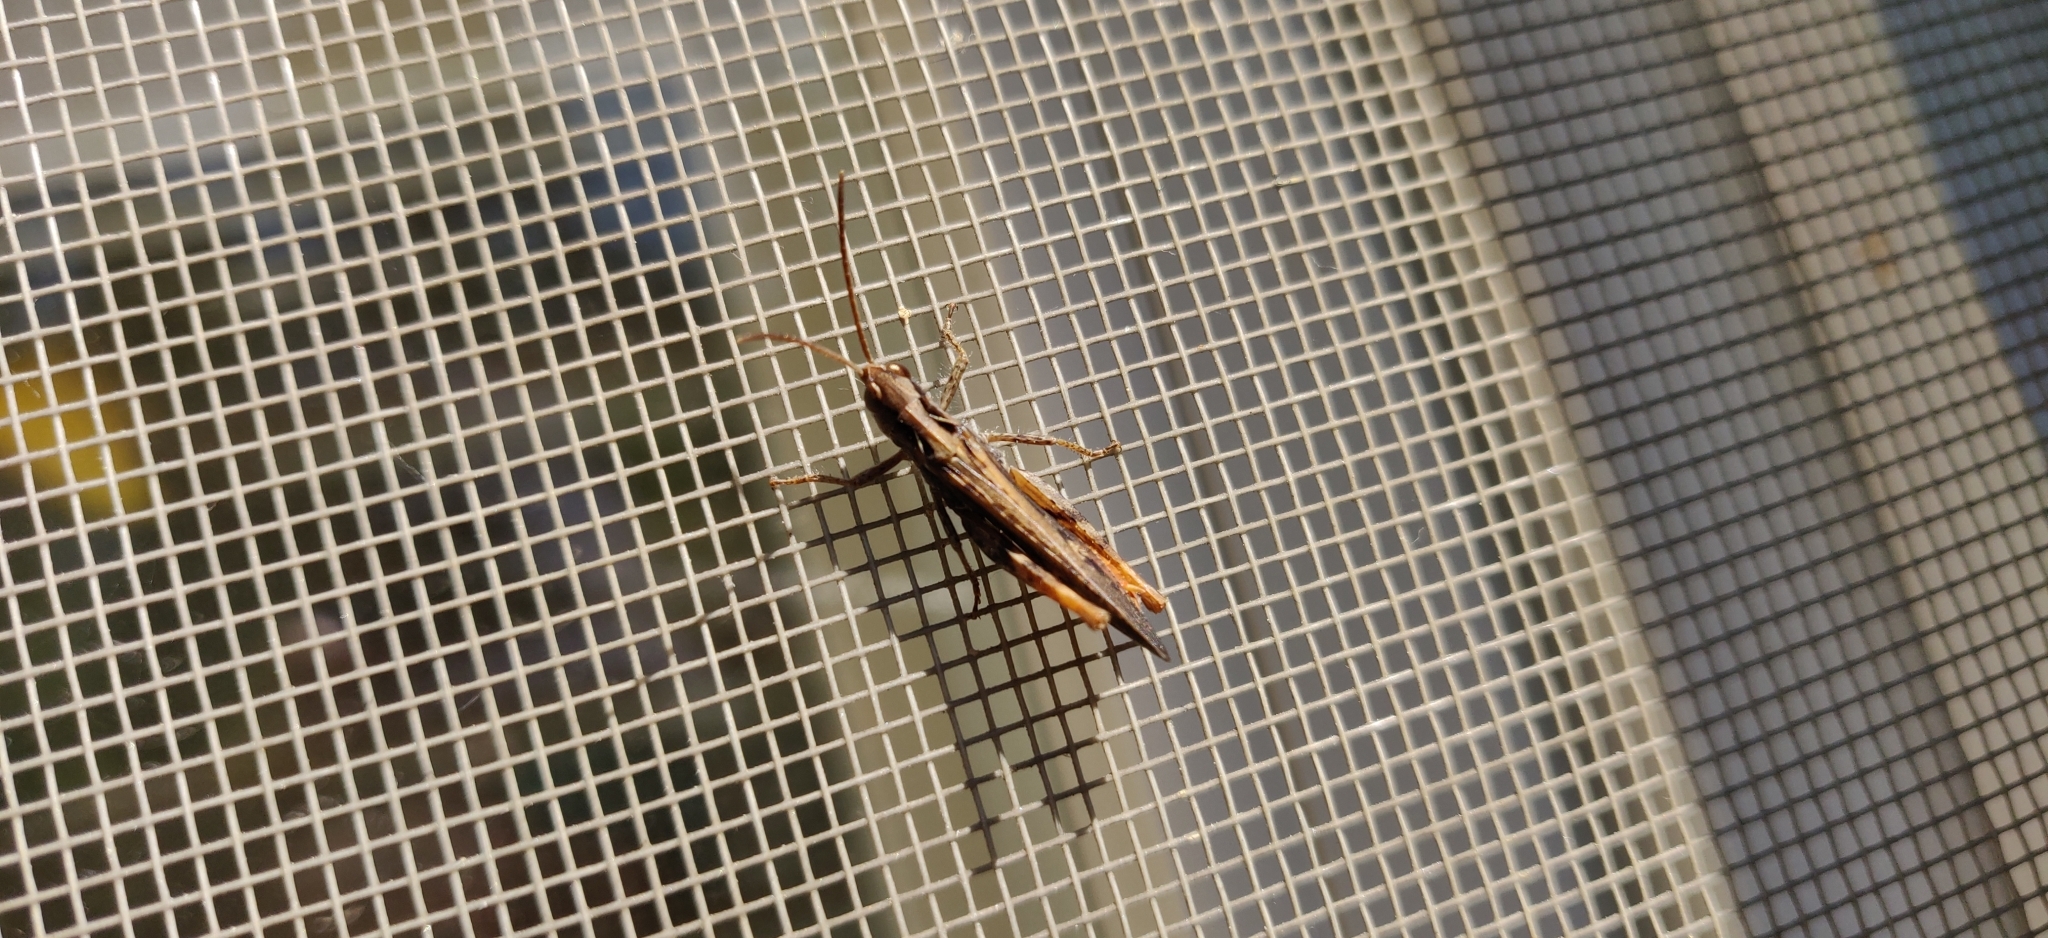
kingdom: Animalia
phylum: Arthropoda
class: Insecta
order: Orthoptera
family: Acrididae
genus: Chorthippus
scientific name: Chorthippus brunneus
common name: Field grasshopper
